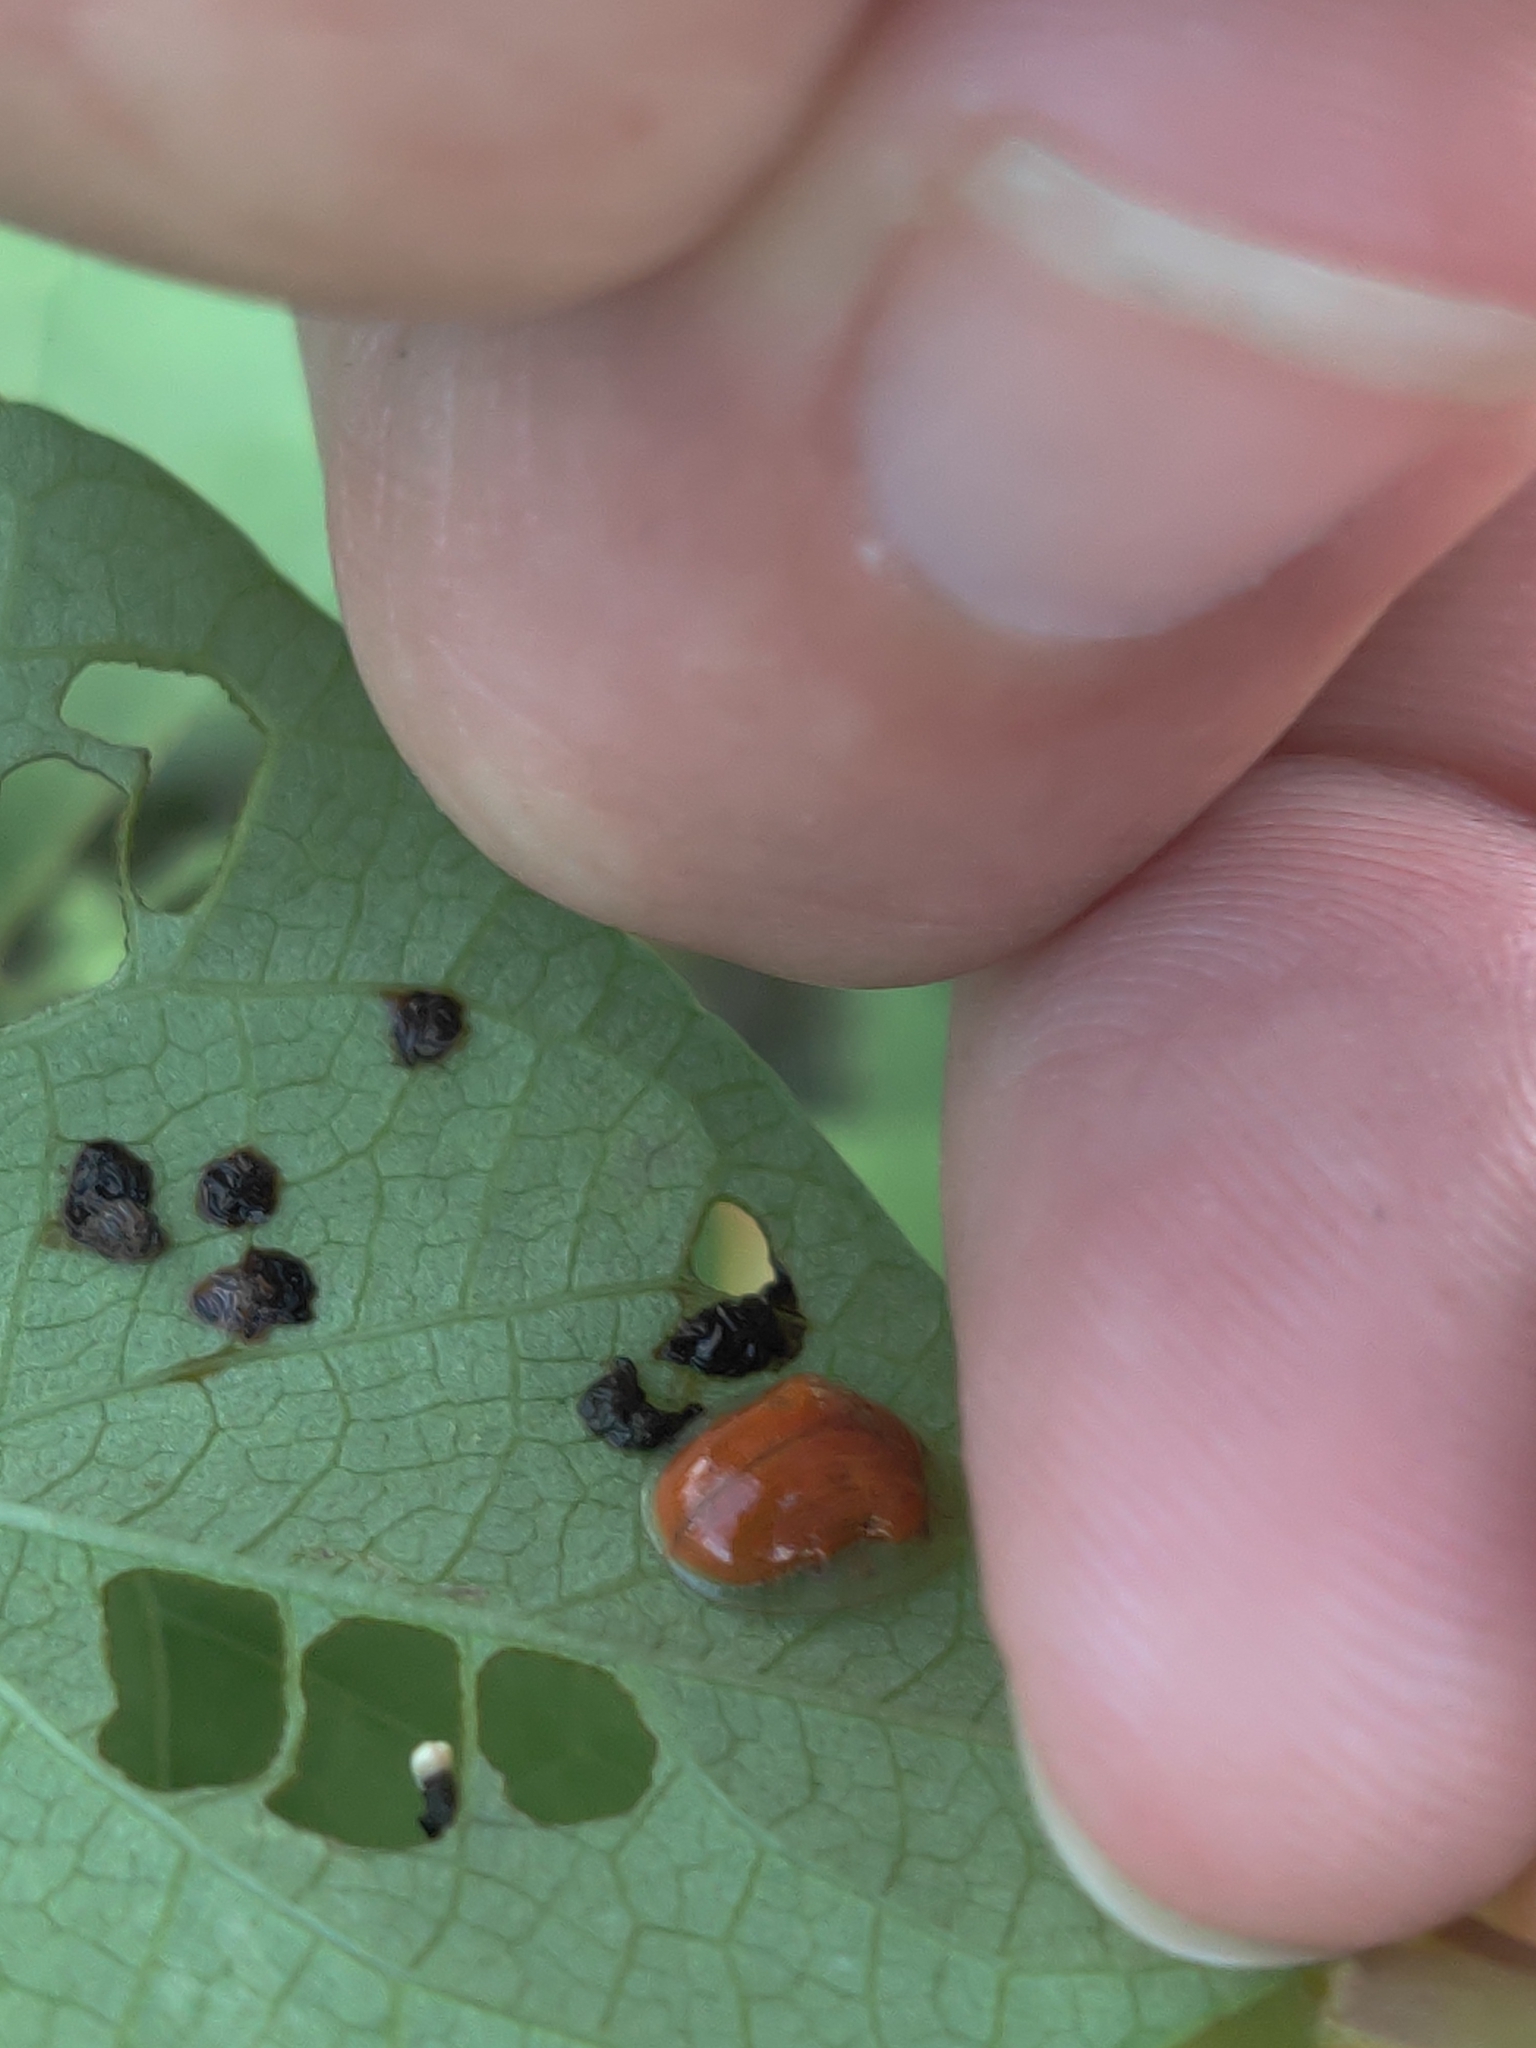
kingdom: Animalia
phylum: Arthropoda
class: Insecta
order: Coleoptera
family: Chrysomelidae
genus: Charidotella
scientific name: Charidotella sexpunctata
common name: Golden tortoise beetle
